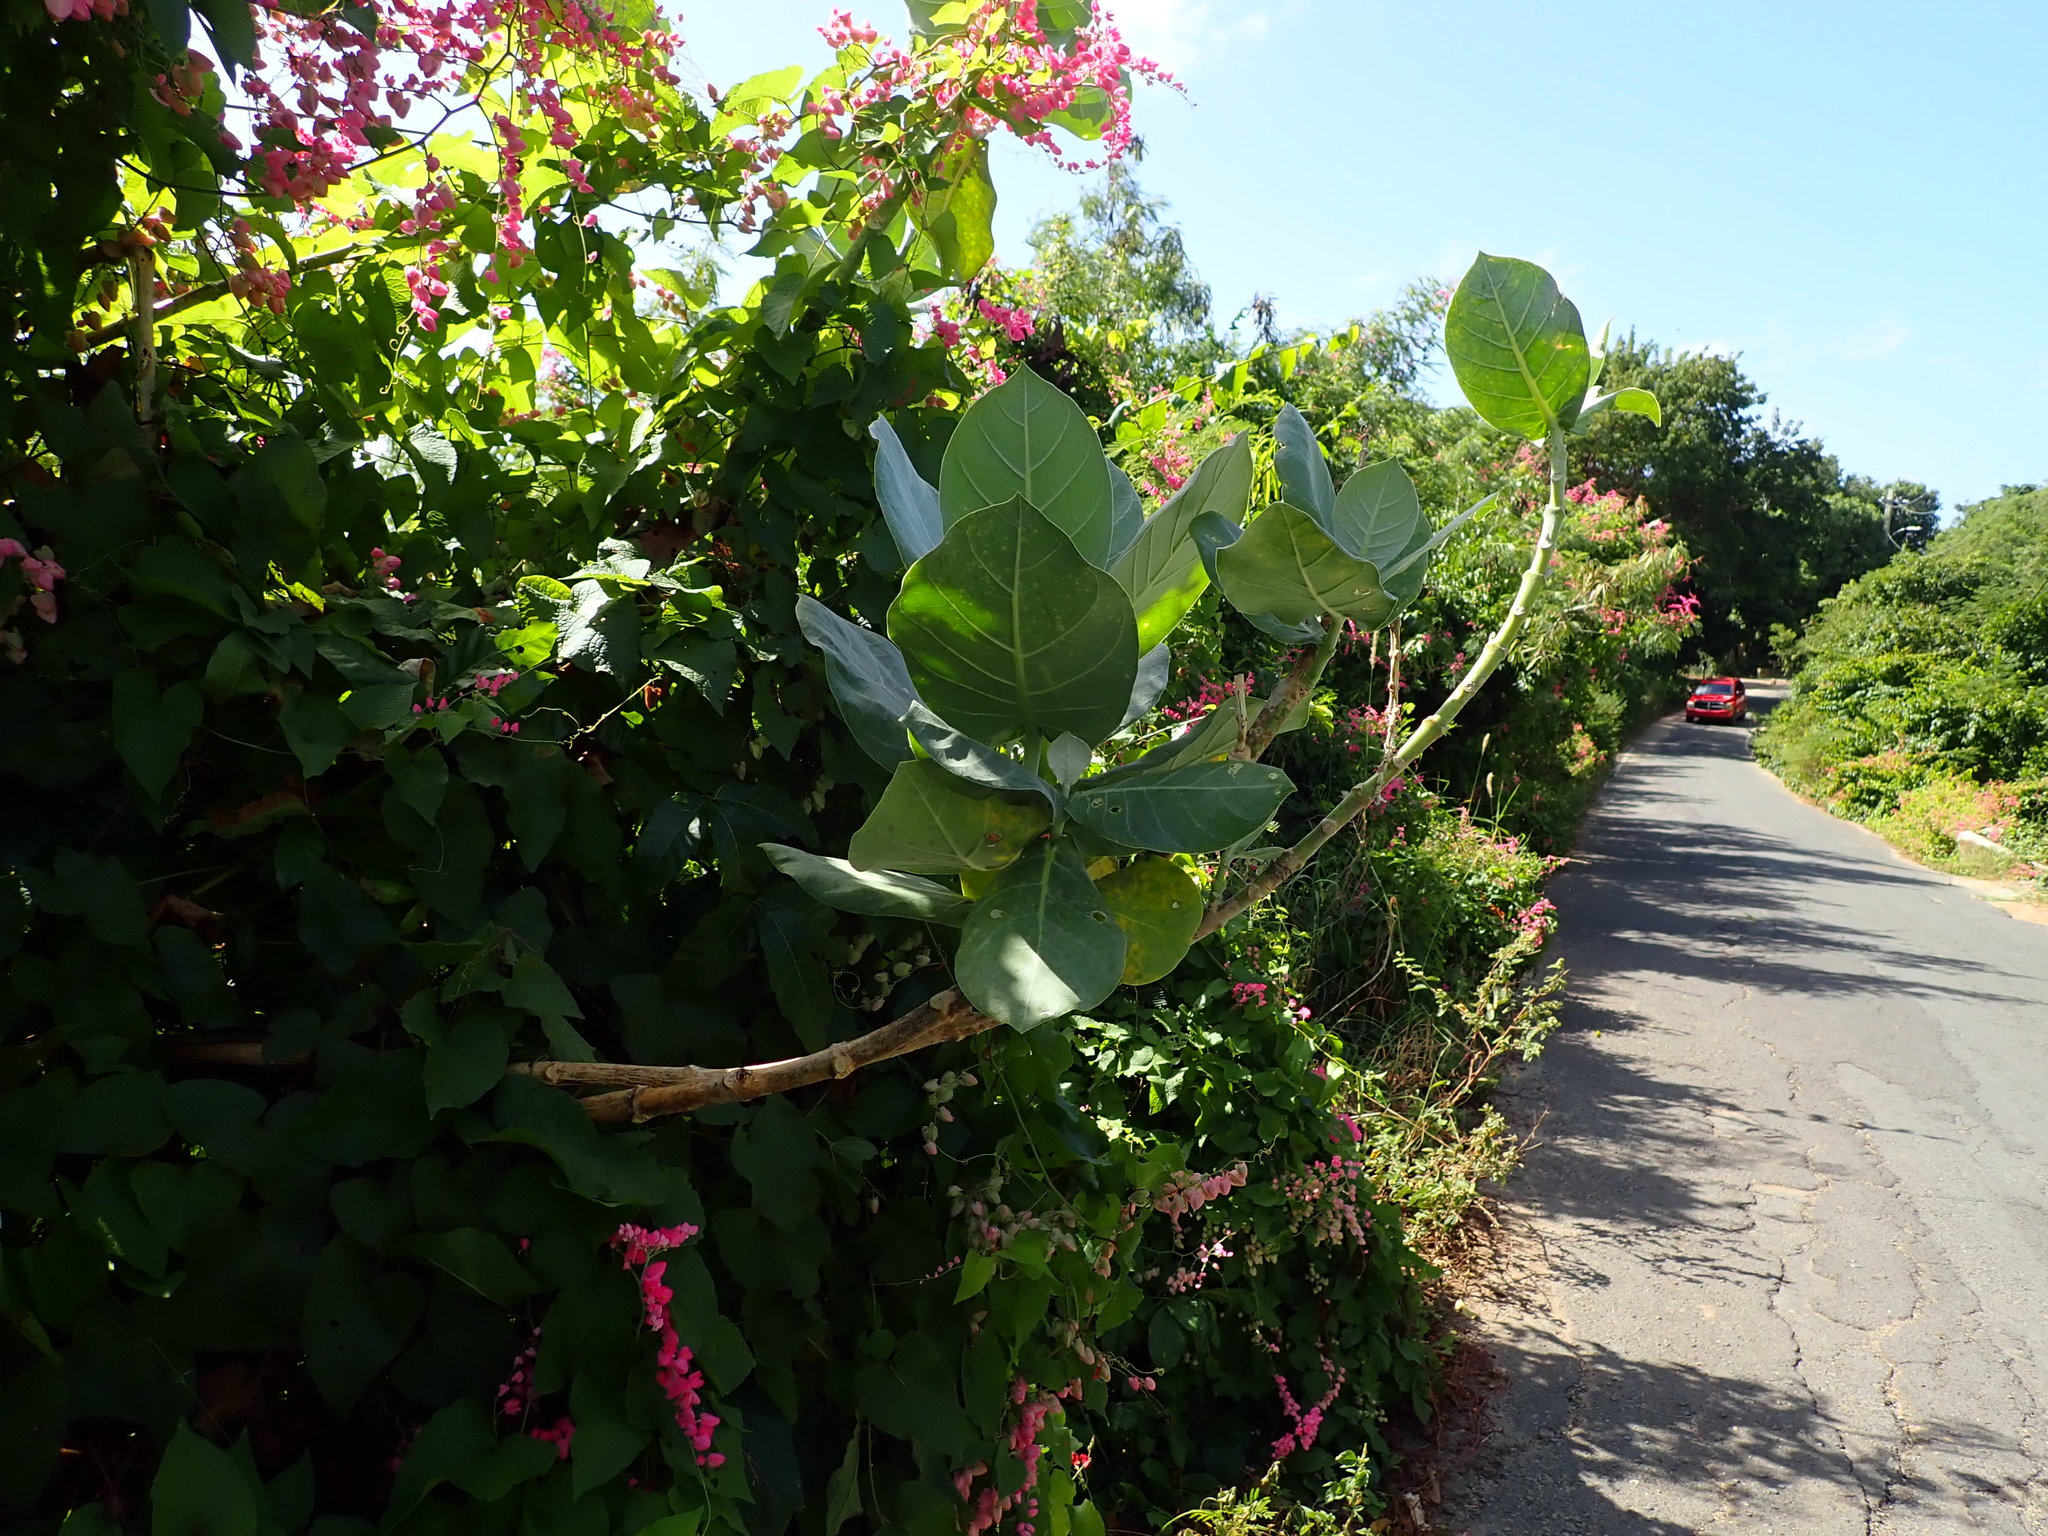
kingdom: Plantae
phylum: Tracheophyta
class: Magnoliopsida
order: Gentianales
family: Apocynaceae
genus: Calotropis
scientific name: Calotropis procera
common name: Roostertree
